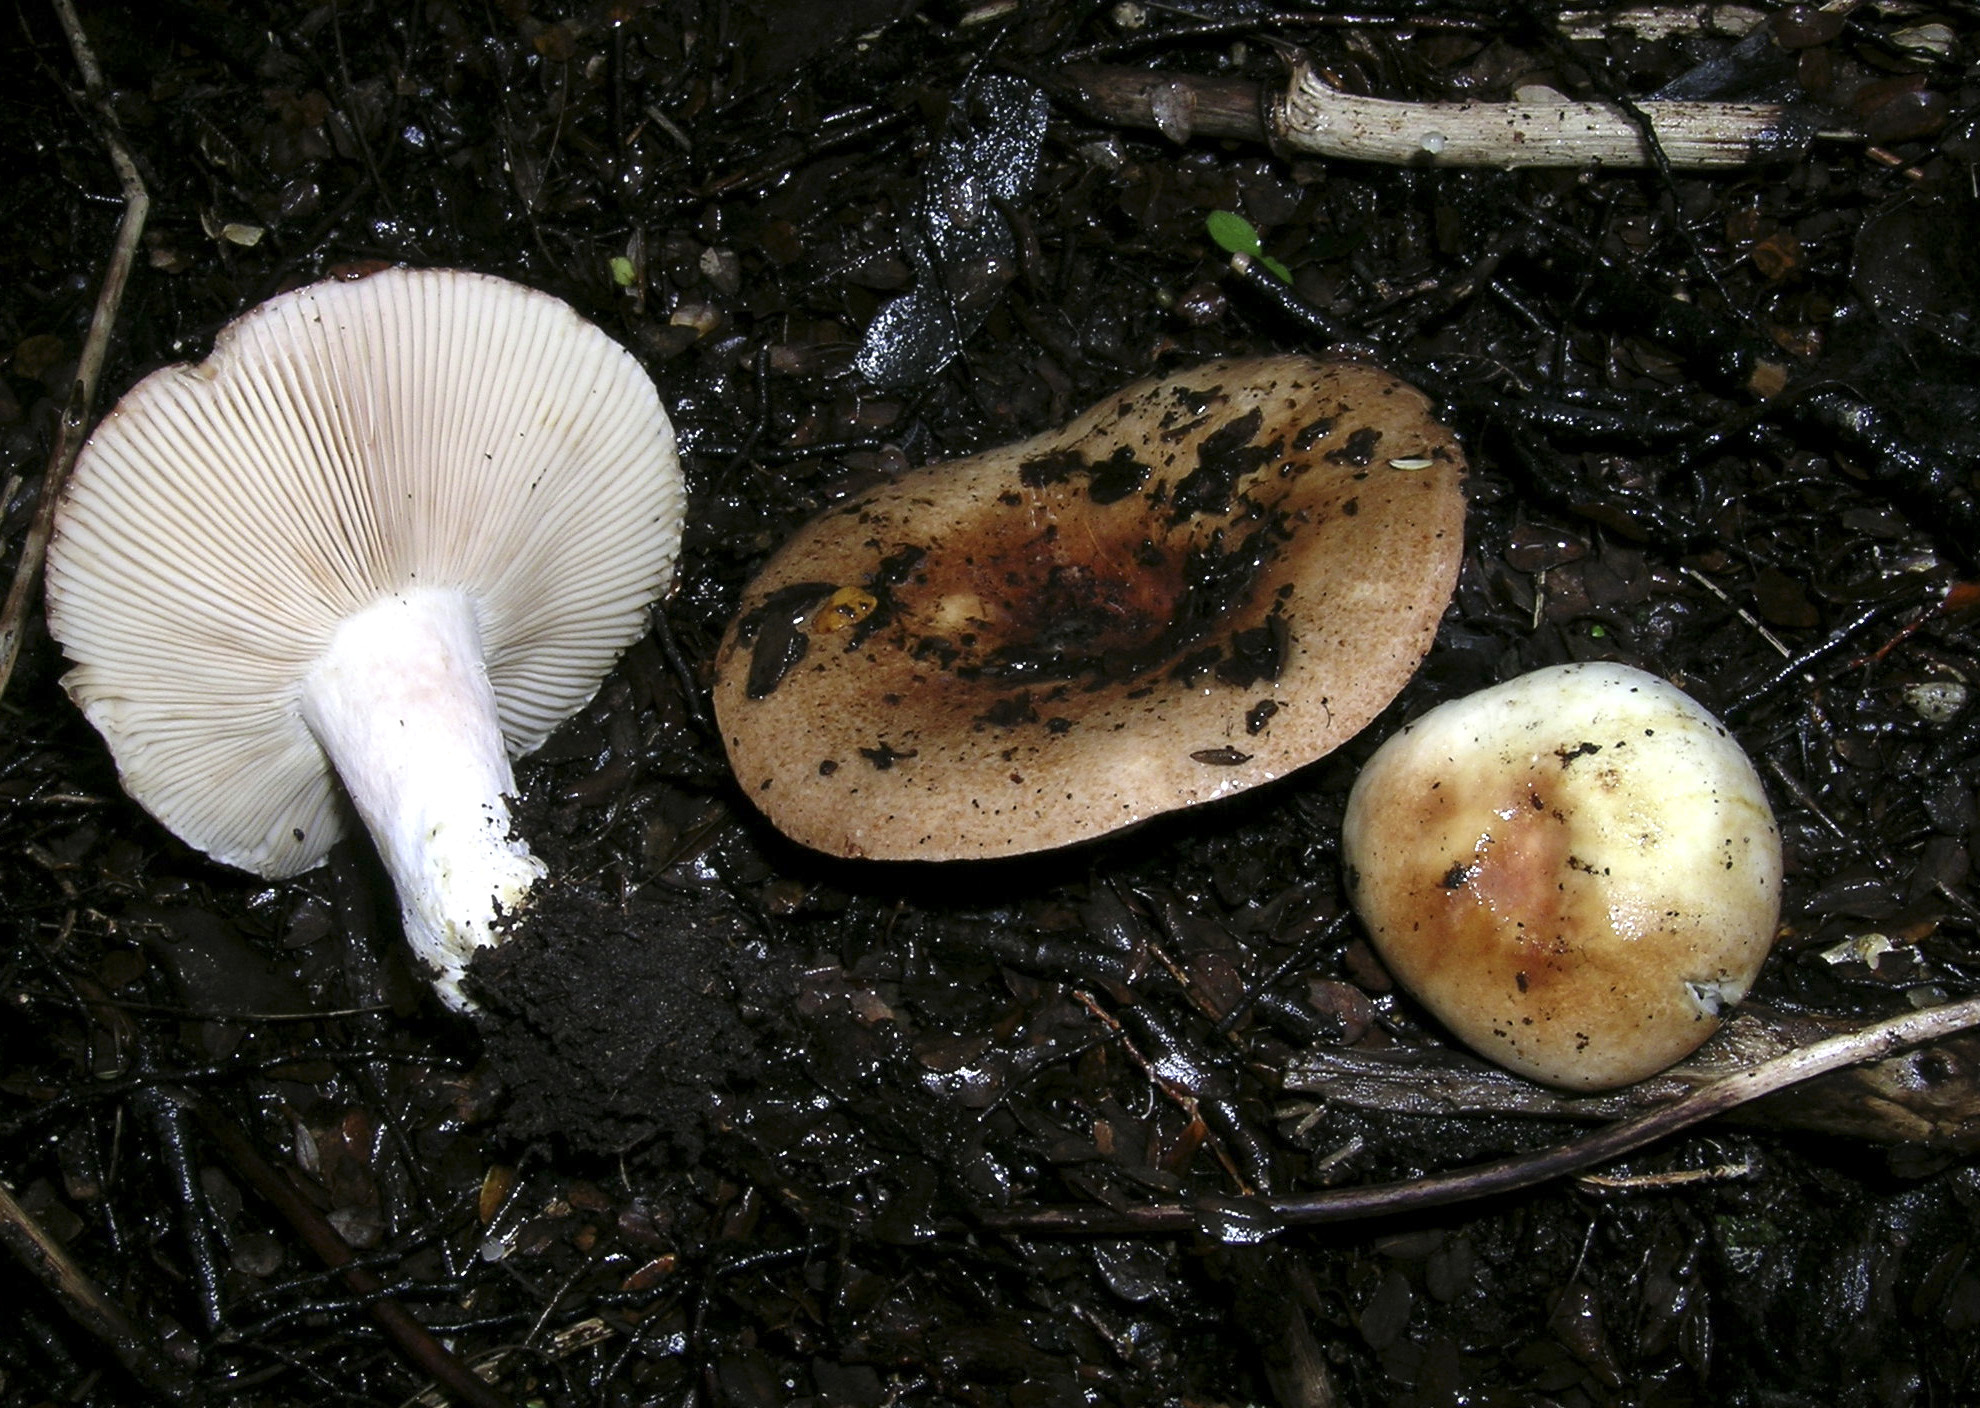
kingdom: Fungi
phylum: Basidiomycota
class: Agaricomycetes
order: Russulales
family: Russulaceae
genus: Russula
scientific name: Russula pseudoareolata
